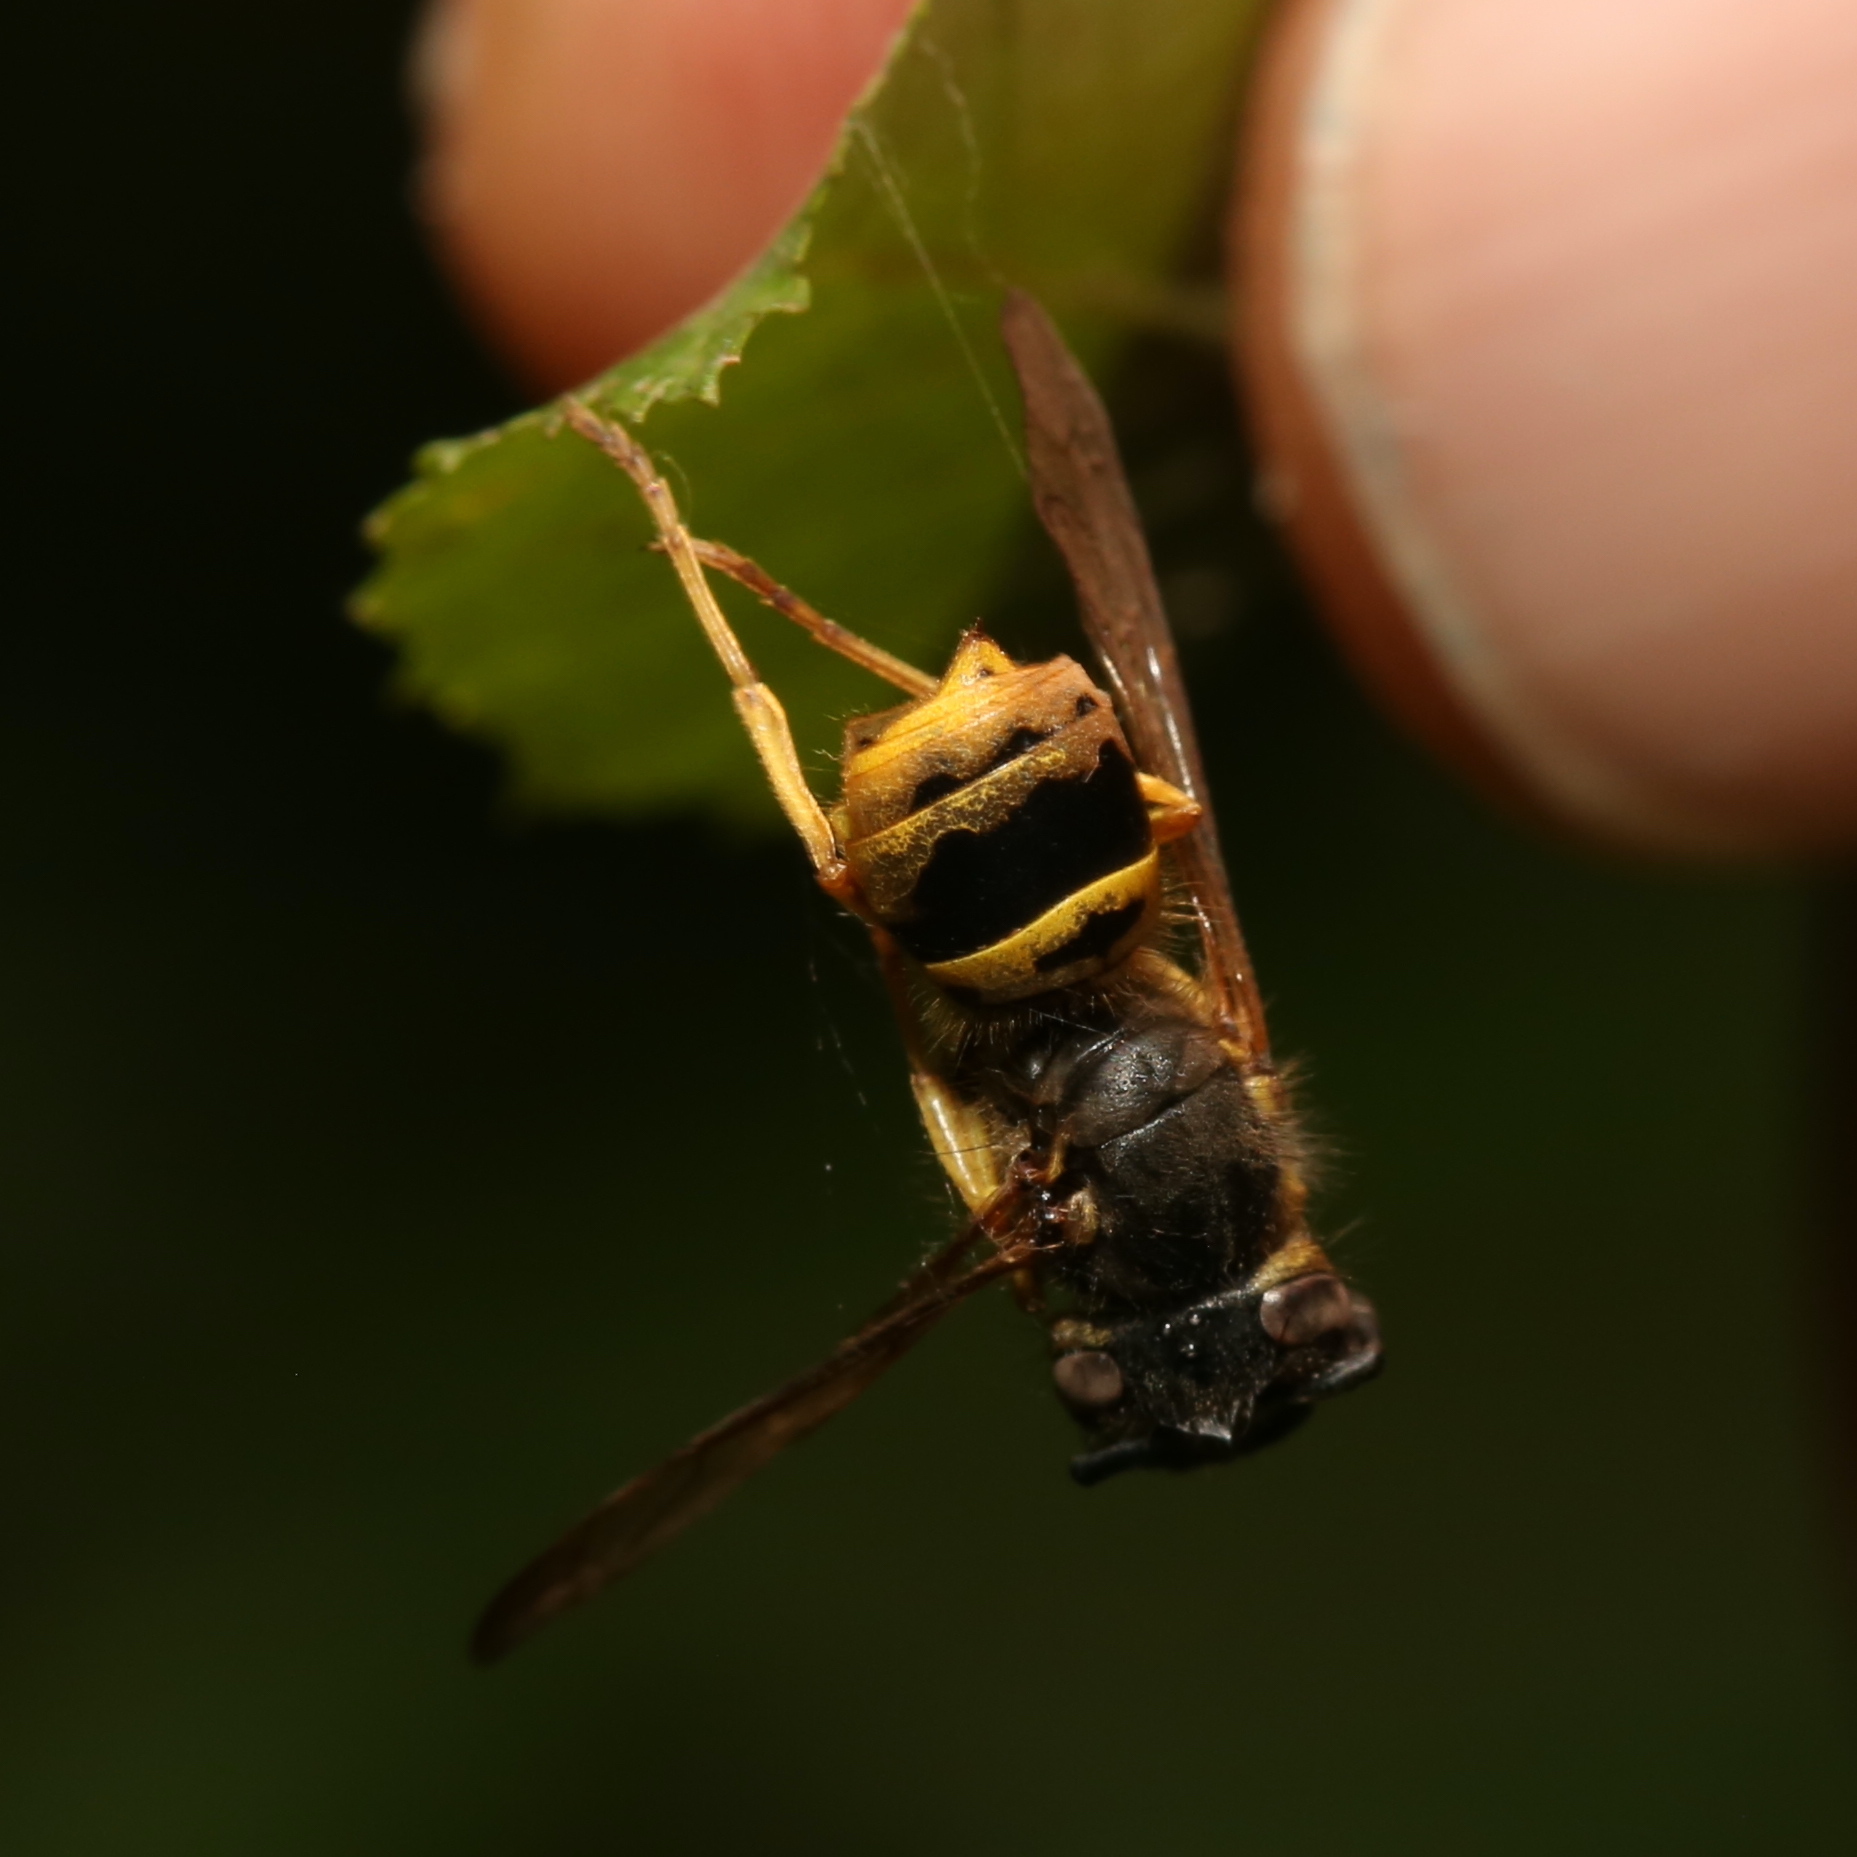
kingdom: Animalia
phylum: Arthropoda
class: Insecta
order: Hymenoptera
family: Vespidae
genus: Vespula
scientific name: Vespula maculifrons
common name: Eastern yellowjacket
